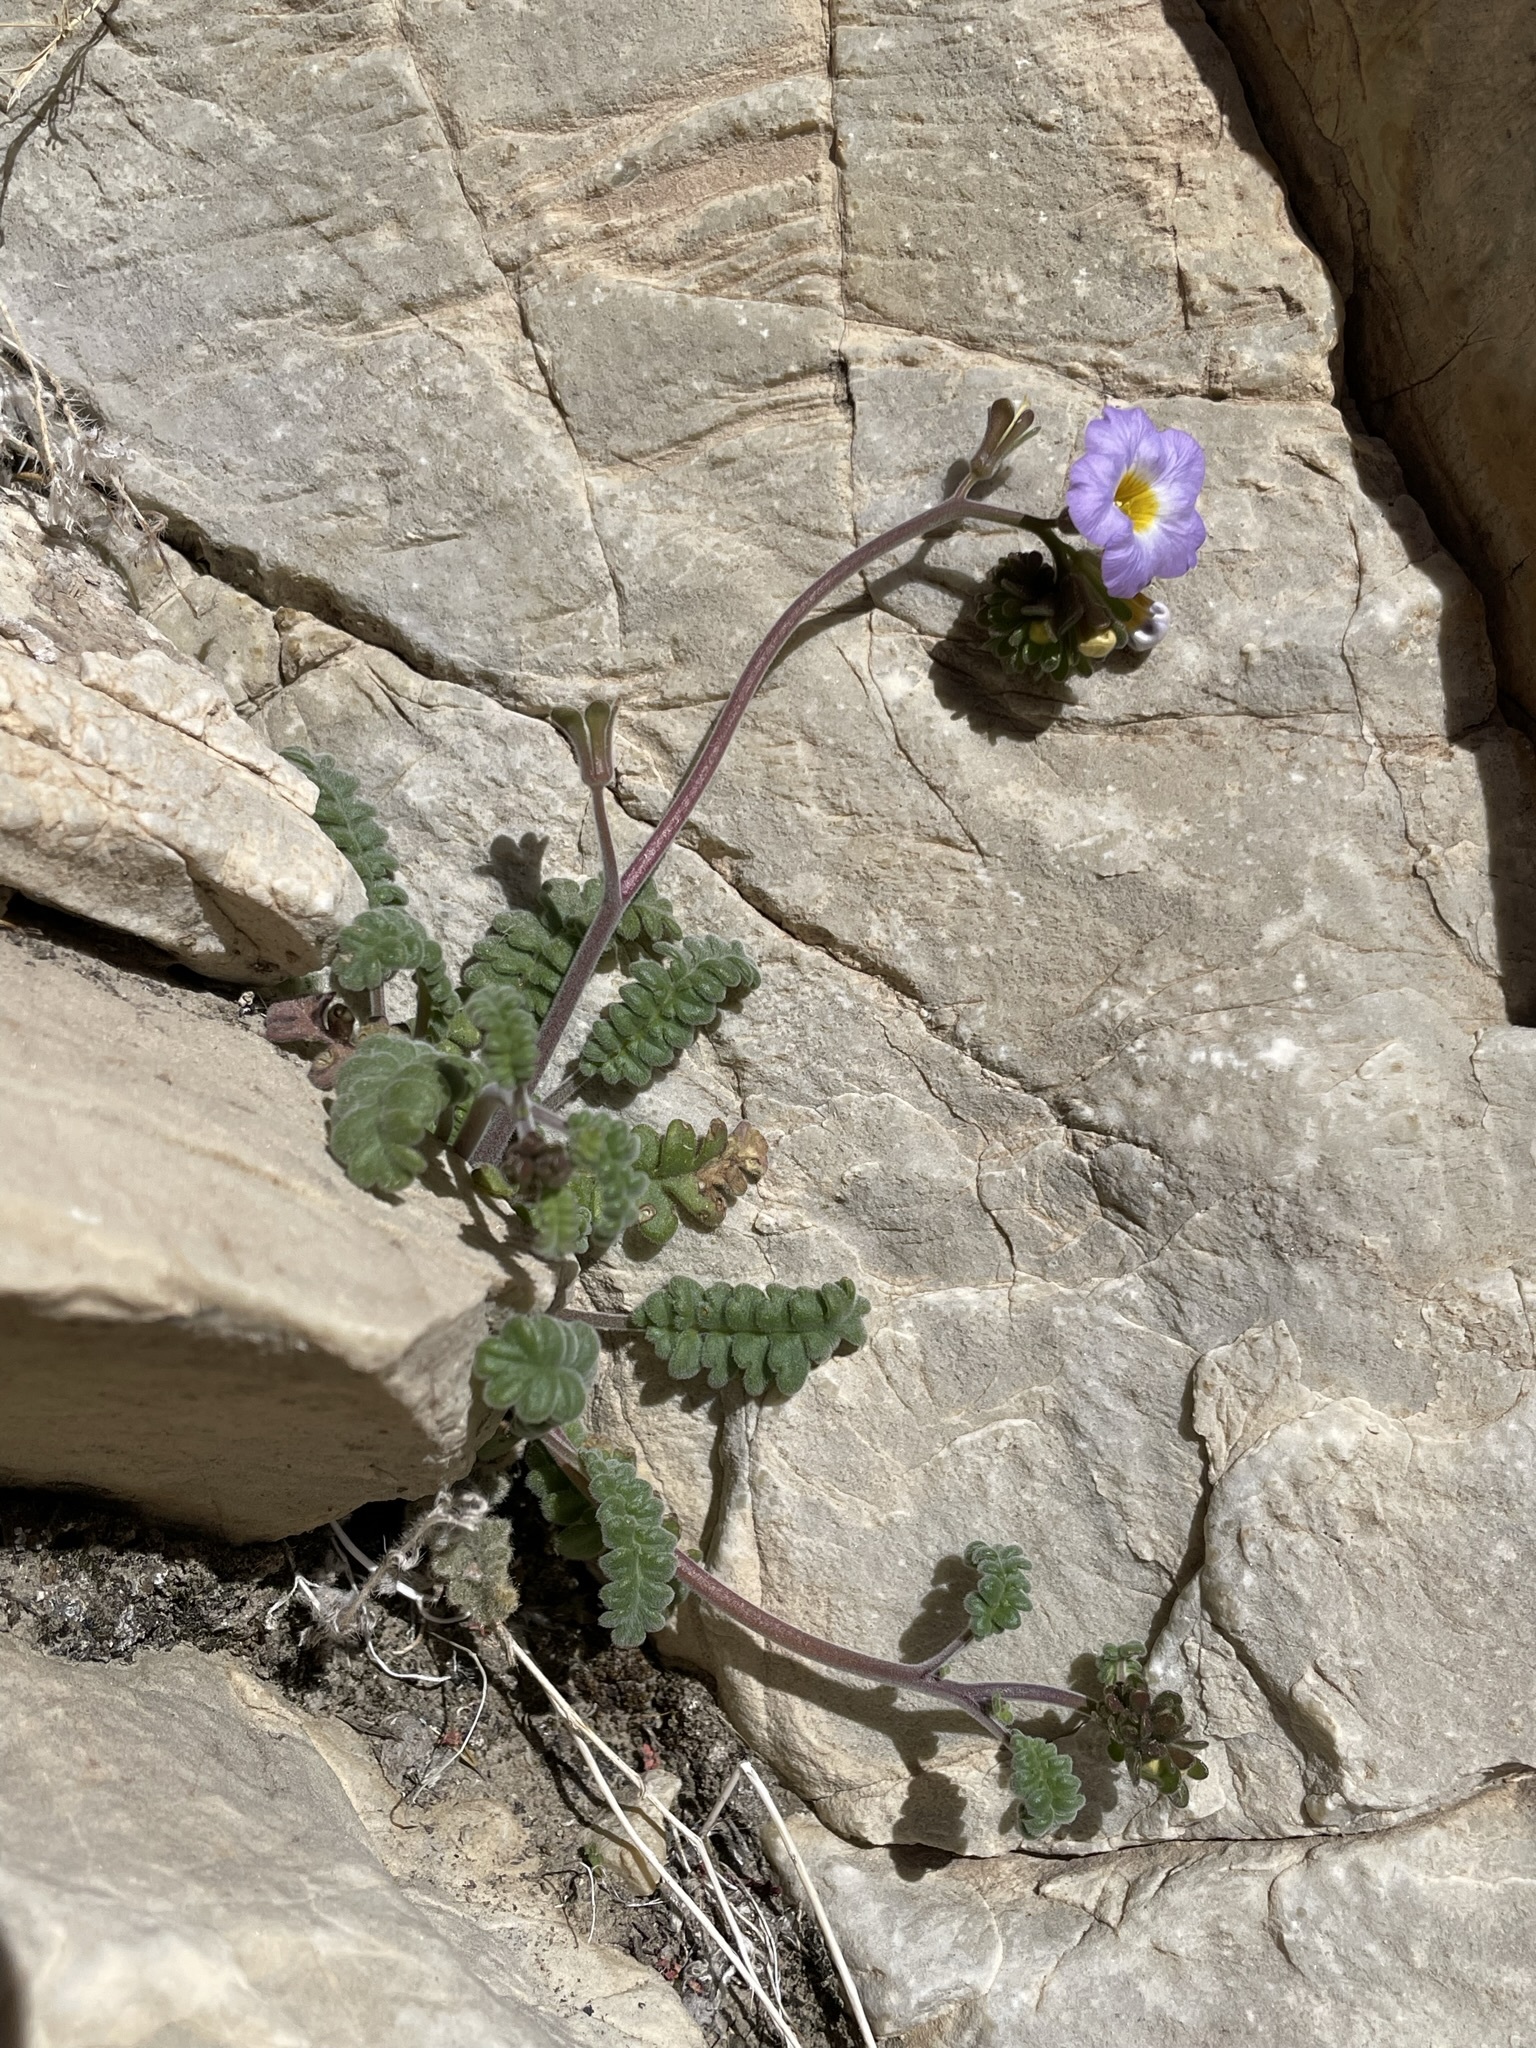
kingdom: Plantae
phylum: Tracheophyta
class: Magnoliopsida
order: Boraginales
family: Hydrophyllaceae
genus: Phacelia
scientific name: Phacelia fremontii
